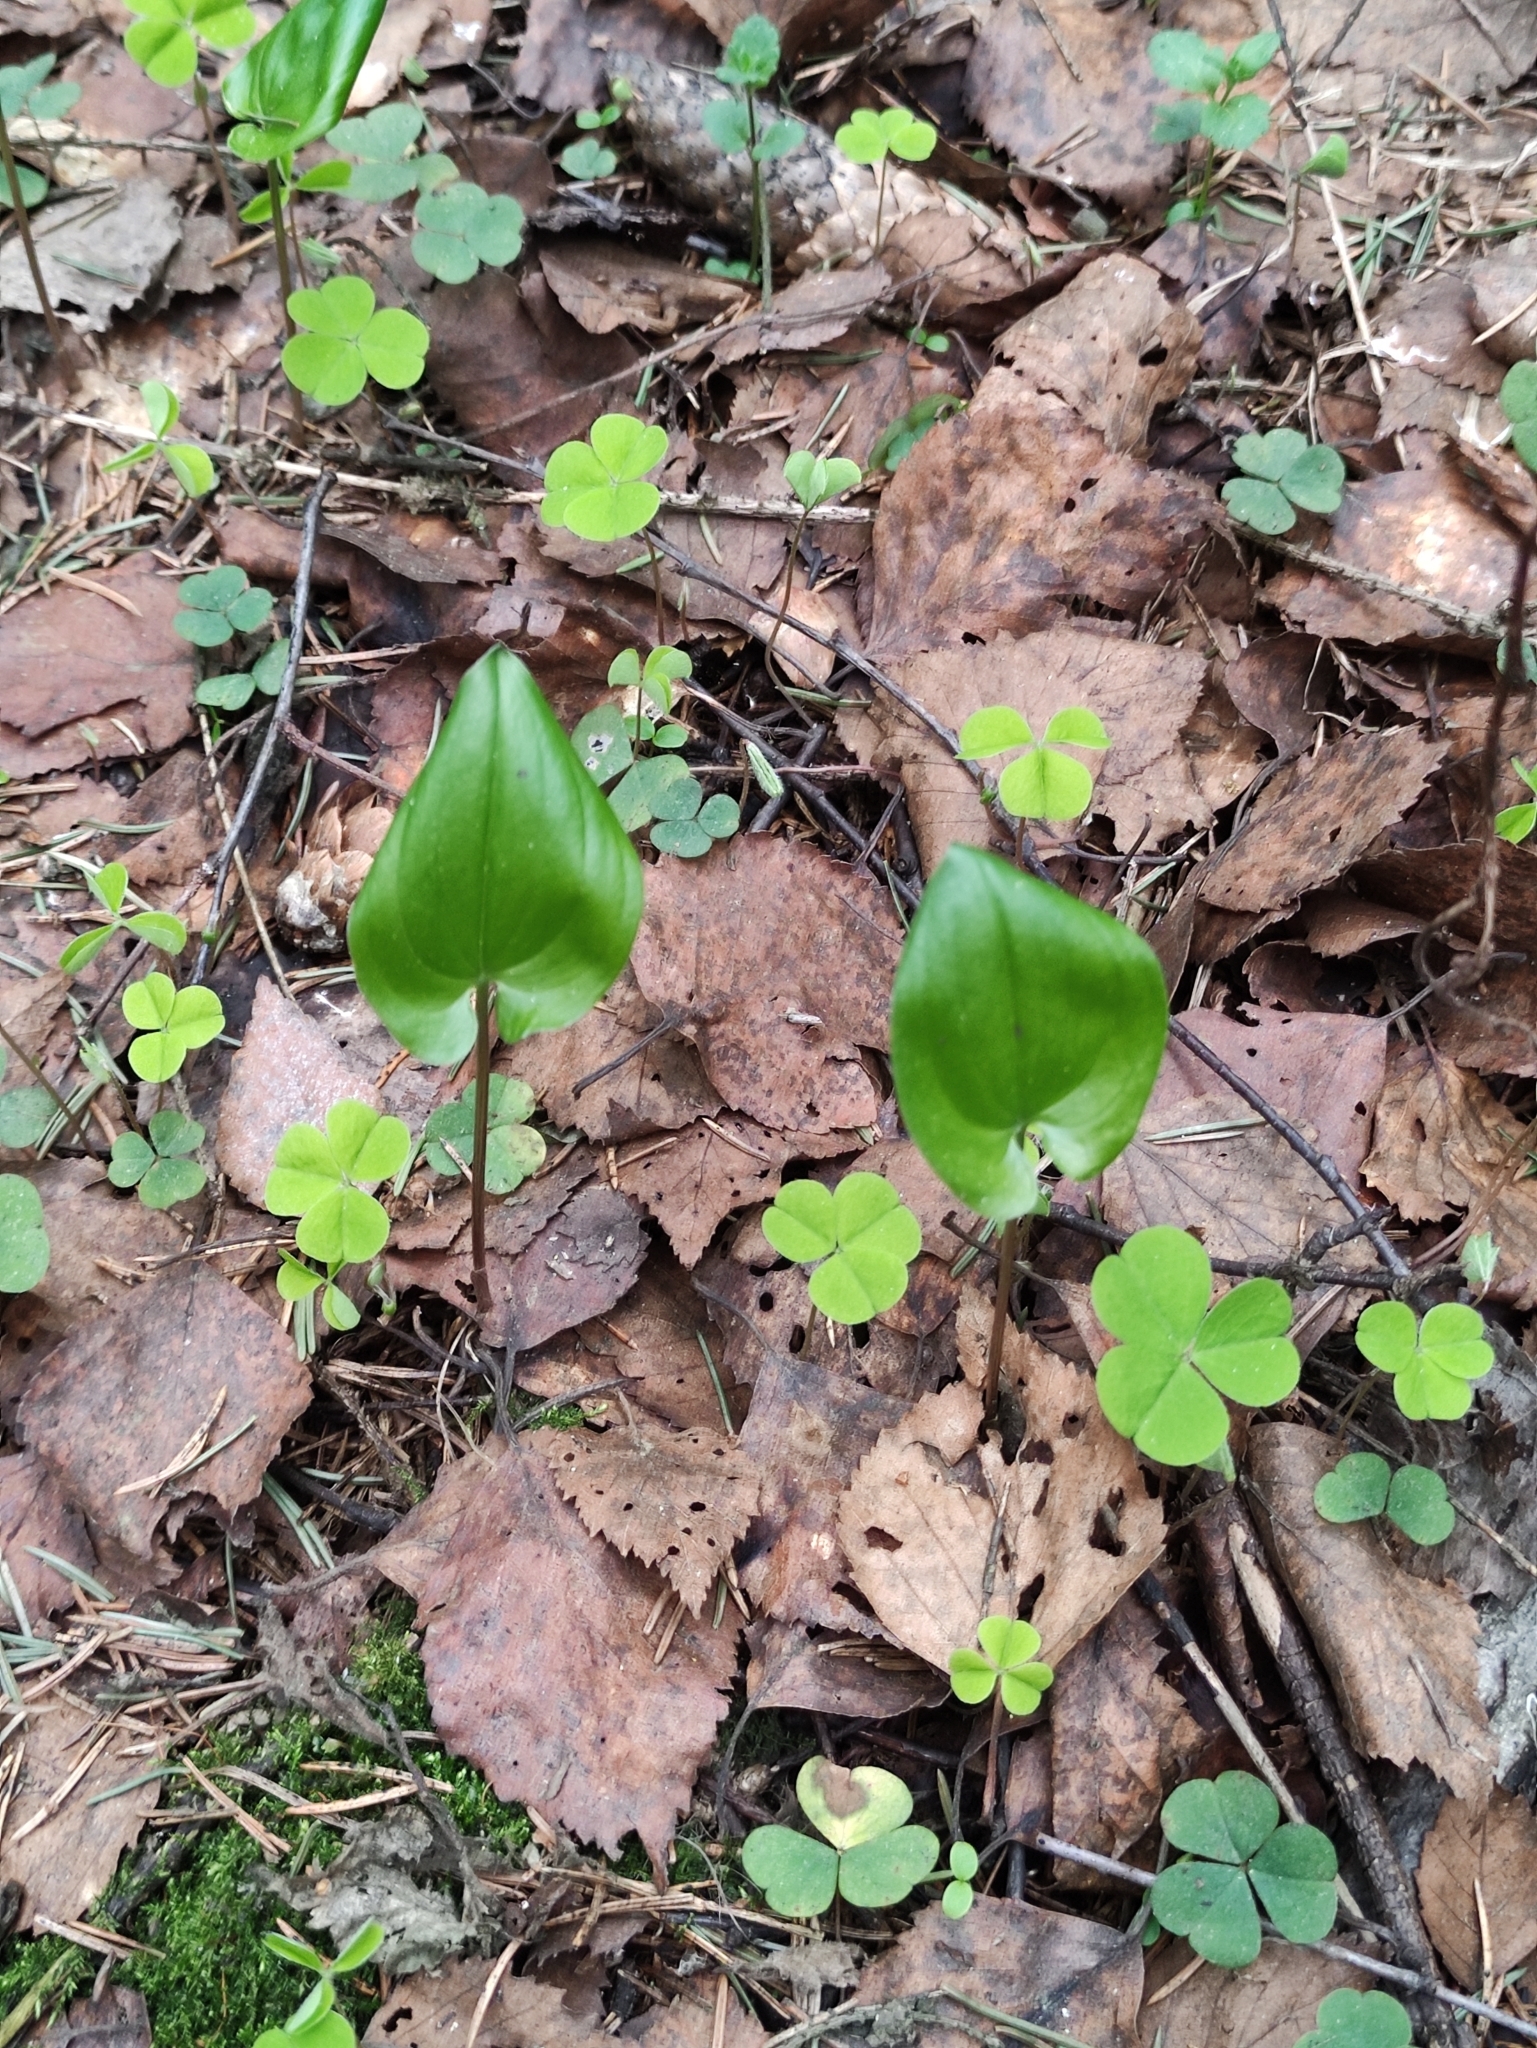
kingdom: Plantae
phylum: Tracheophyta
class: Liliopsida
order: Asparagales
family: Asparagaceae
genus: Maianthemum
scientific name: Maianthemum bifolium
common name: May lily
